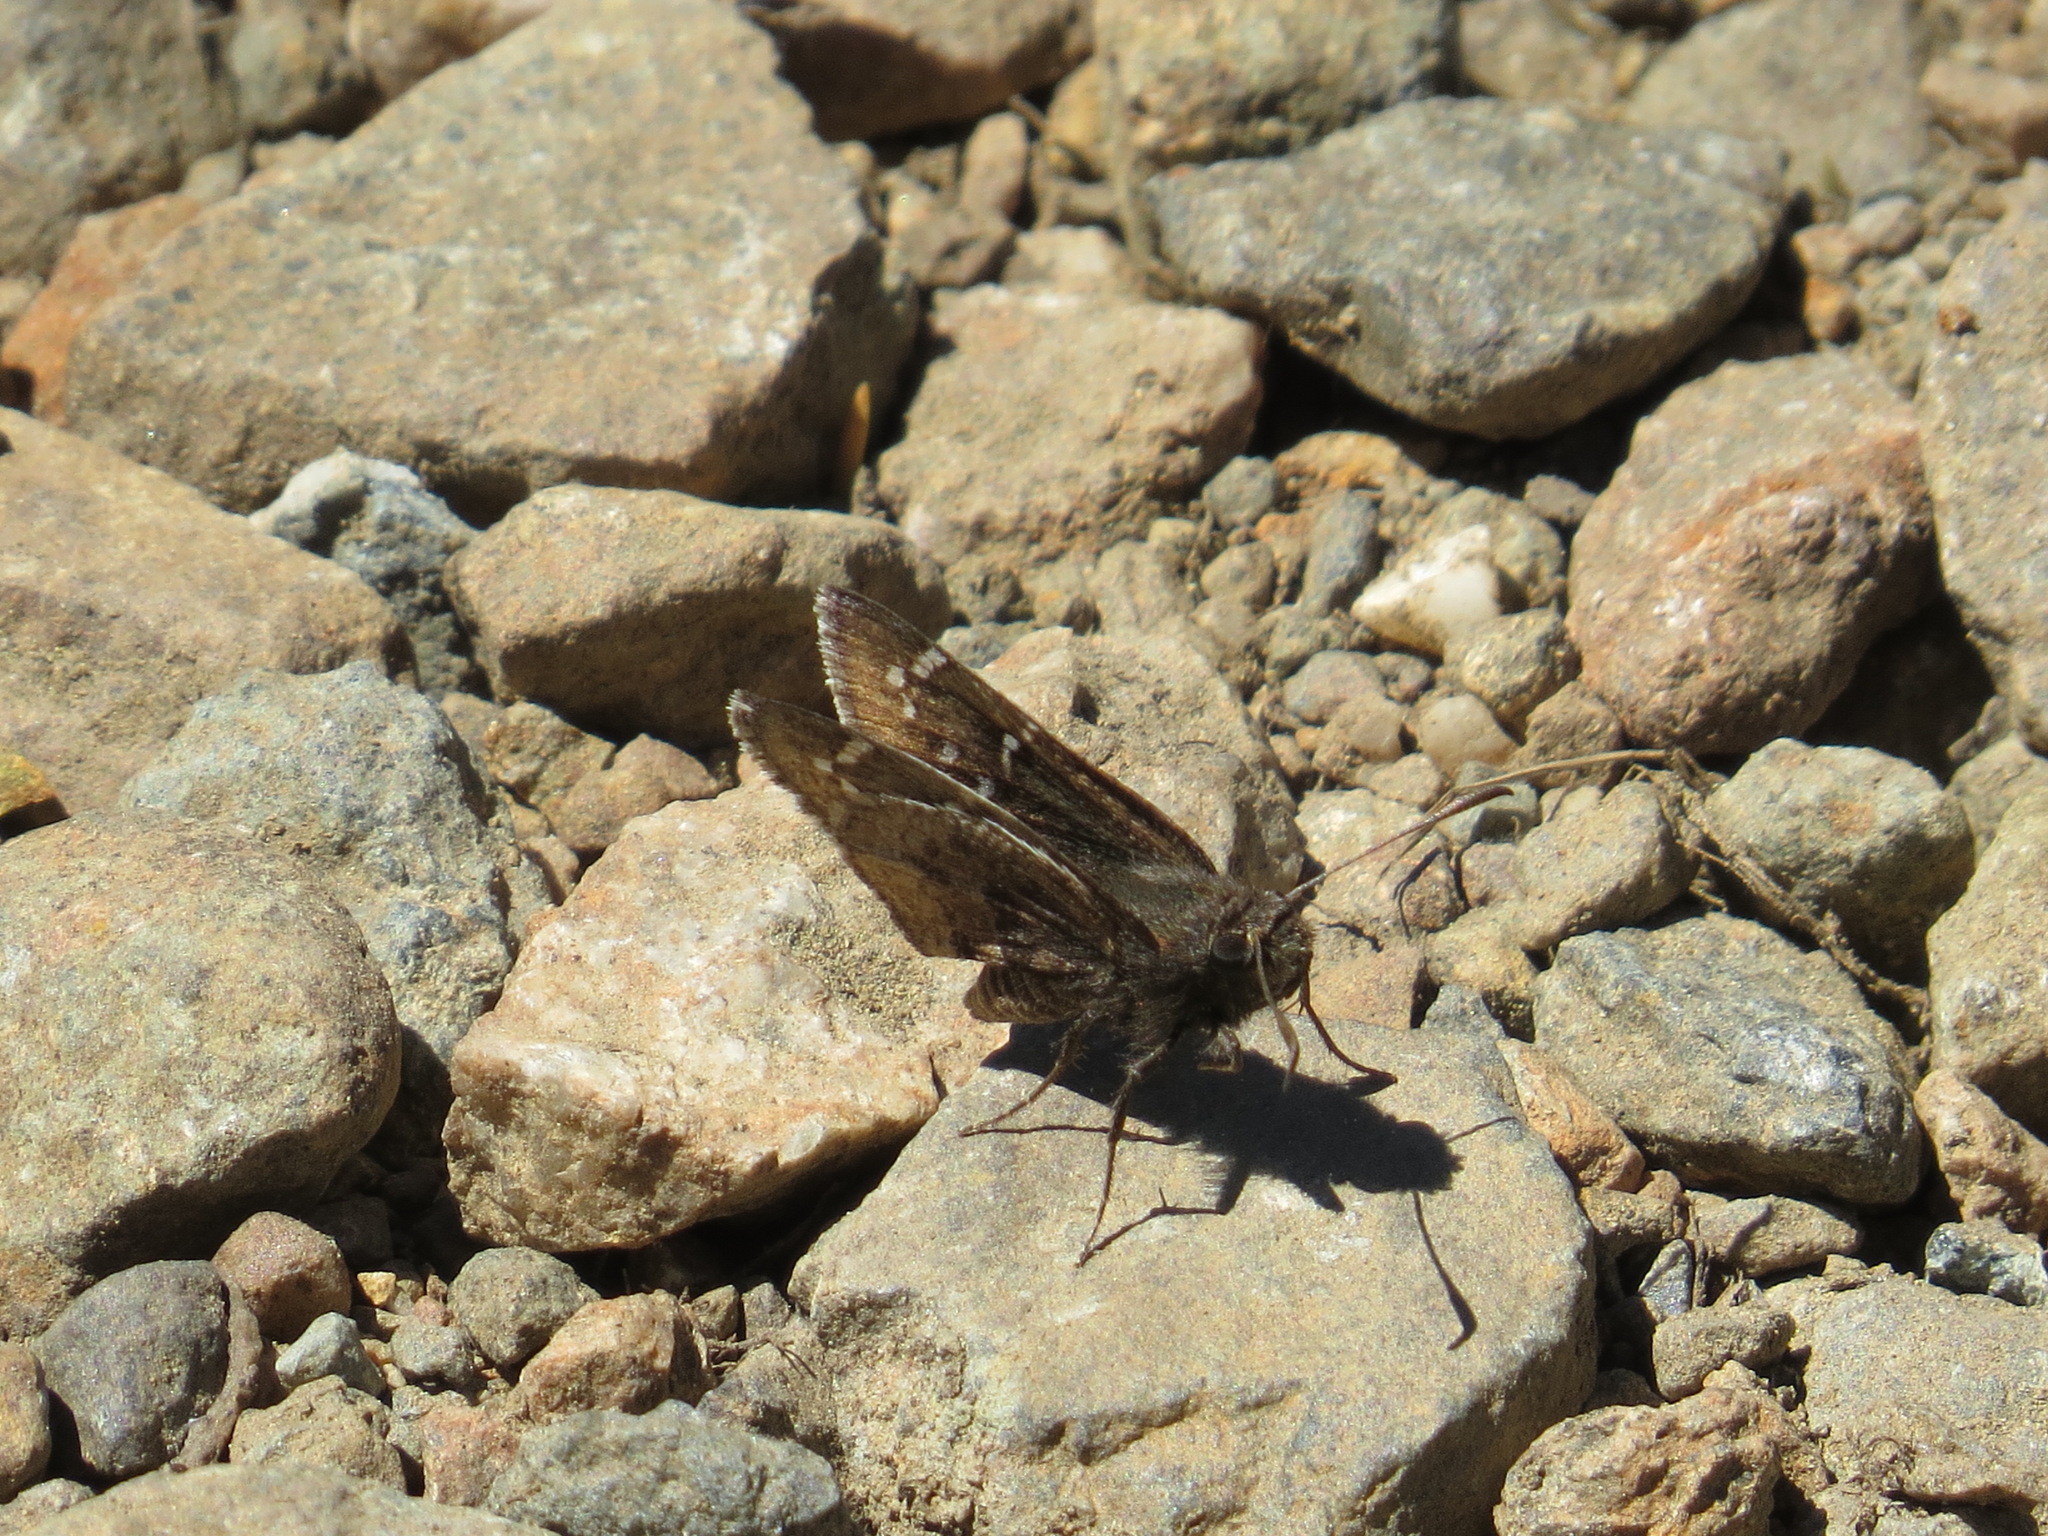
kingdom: Animalia
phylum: Arthropoda
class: Insecta
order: Lepidoptera
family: Hesperiidae
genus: Thorybes
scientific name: Thorybes mexicana
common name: Mexican cloudywing
